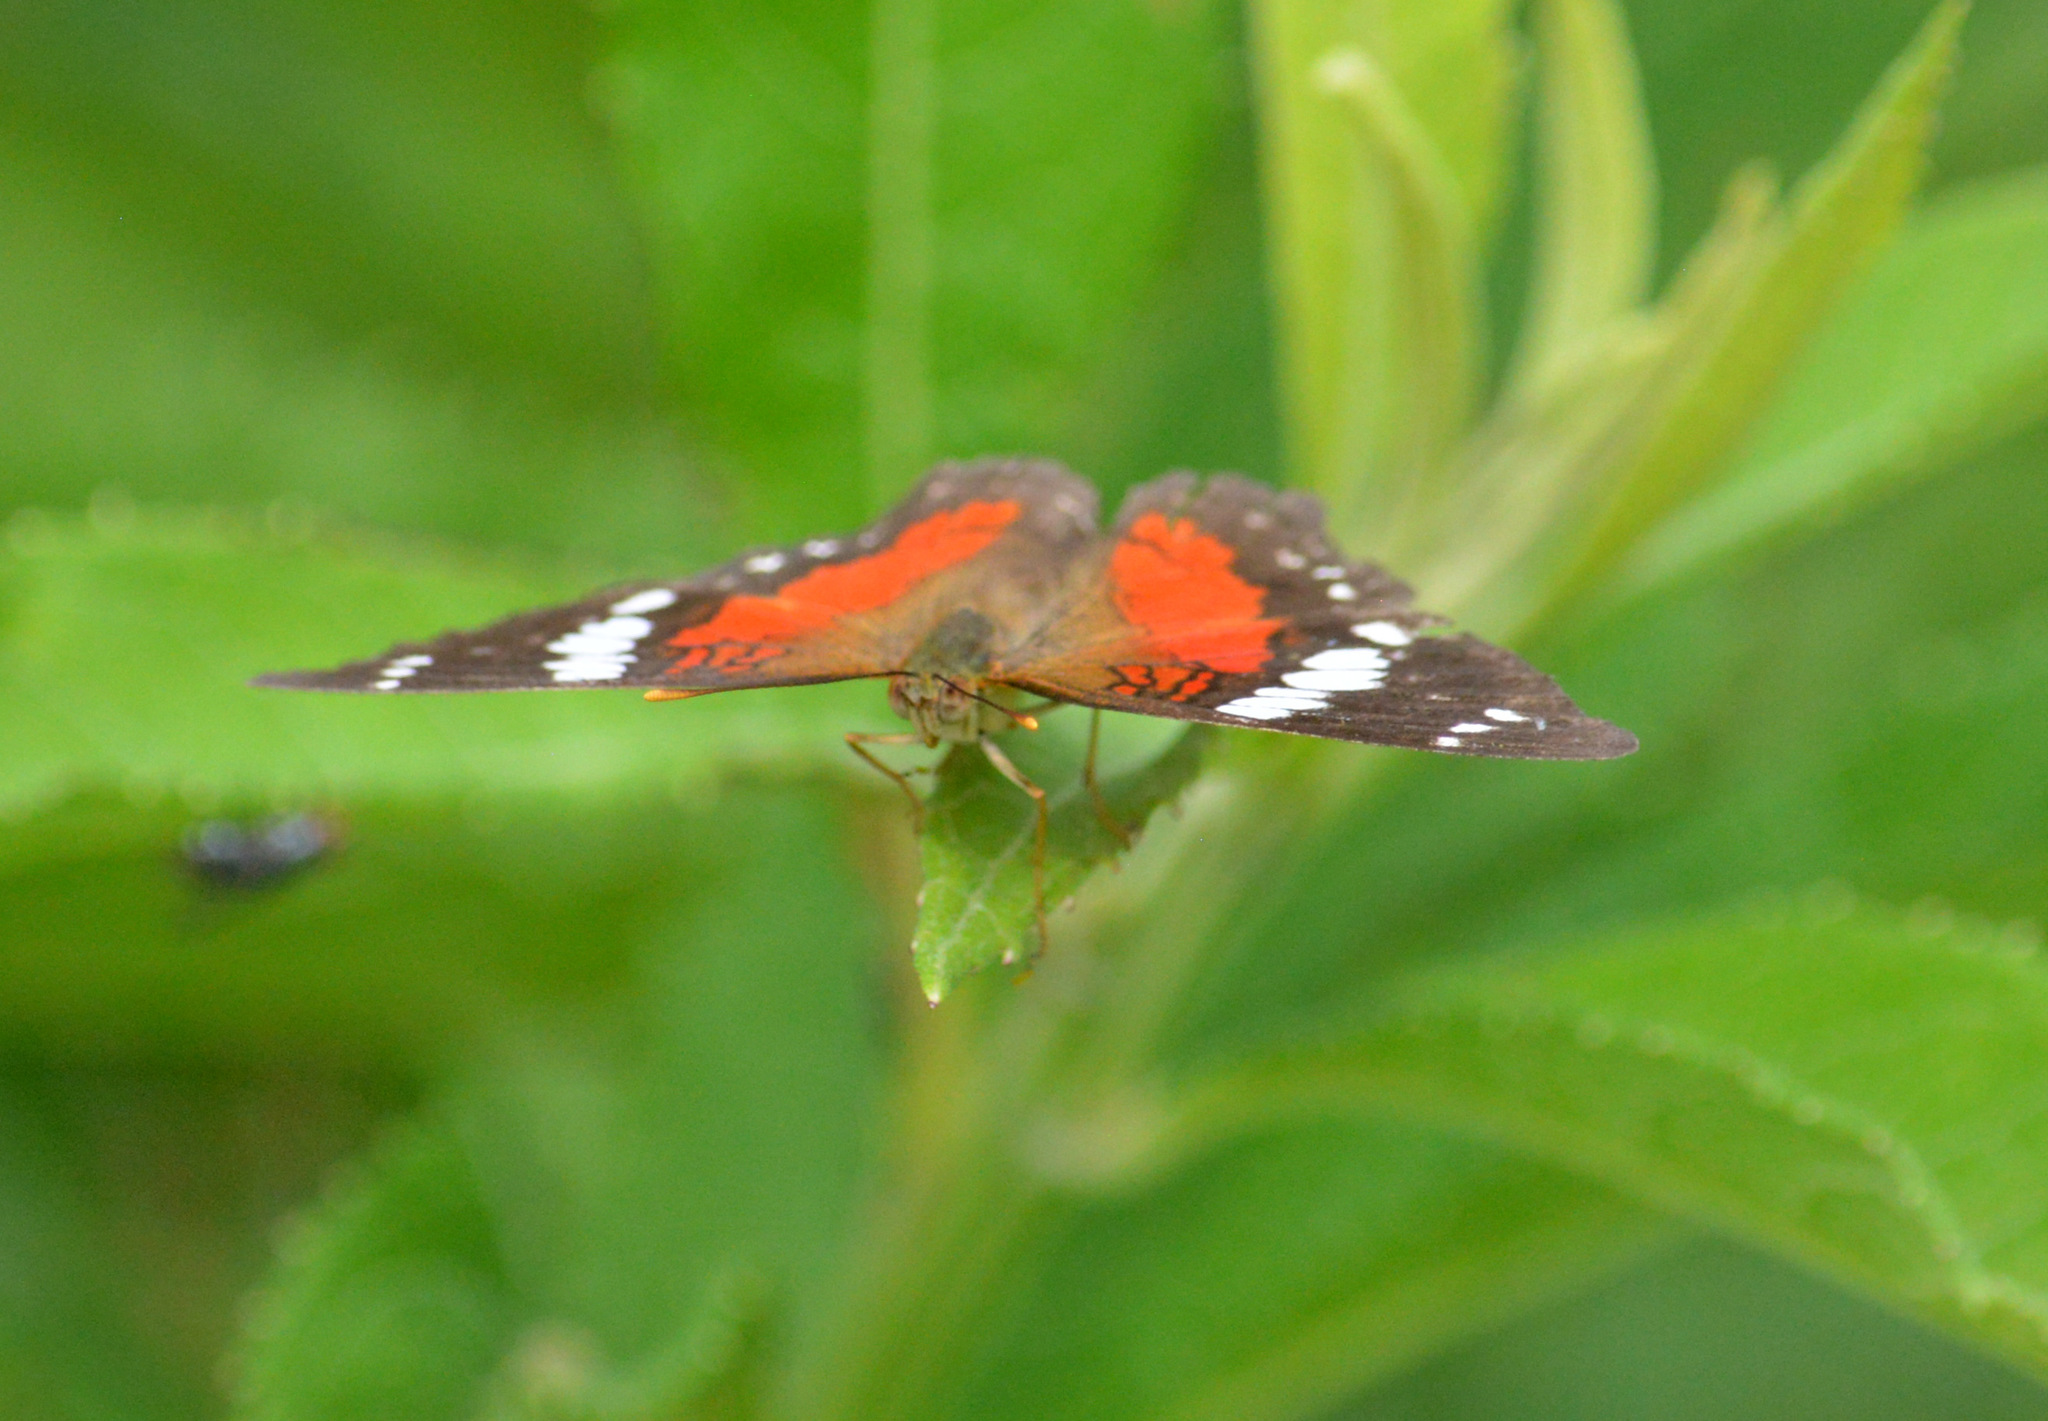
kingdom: Animalia
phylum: Arthropoda
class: Insecta
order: Lepidoptera
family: Nymphalidae
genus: Anartia
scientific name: Anartia amathea
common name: Red peacock
